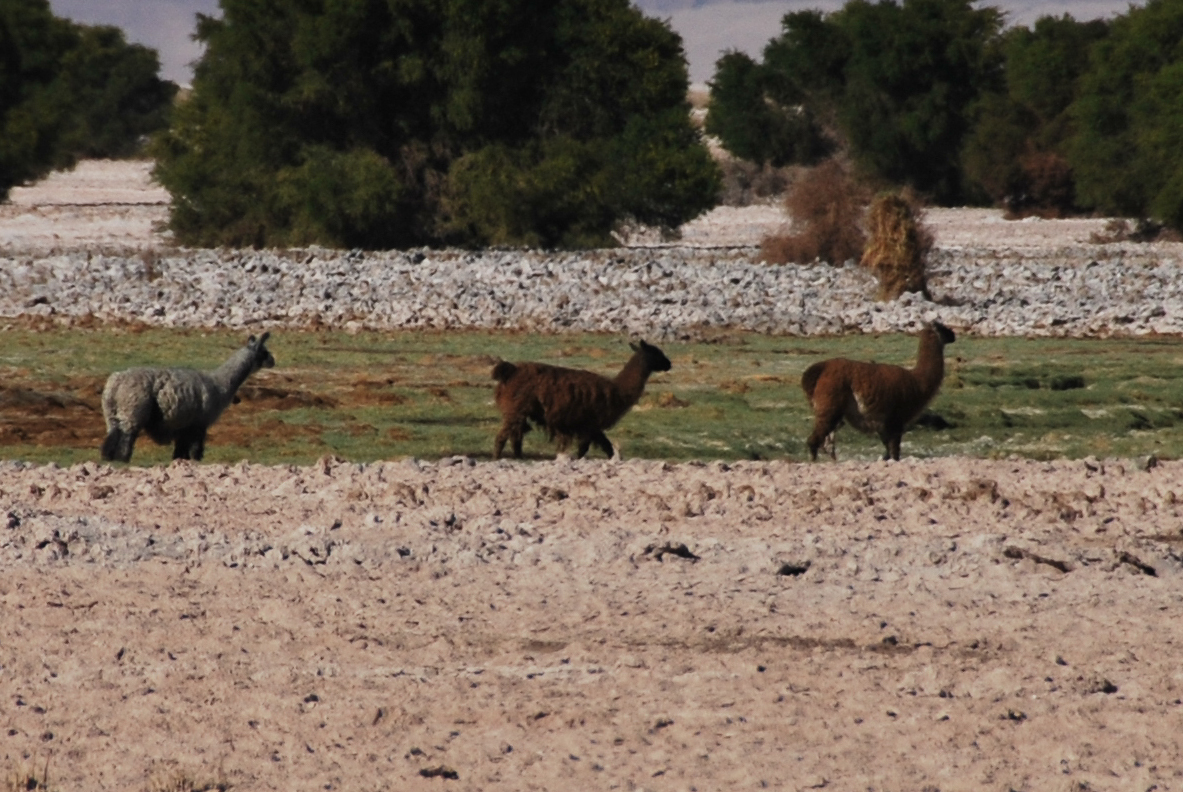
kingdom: Animalia
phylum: Chordata
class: Mammalia
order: Artiodactyla
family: Camelidae
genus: Lama
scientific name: Lama glama
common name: Llama
